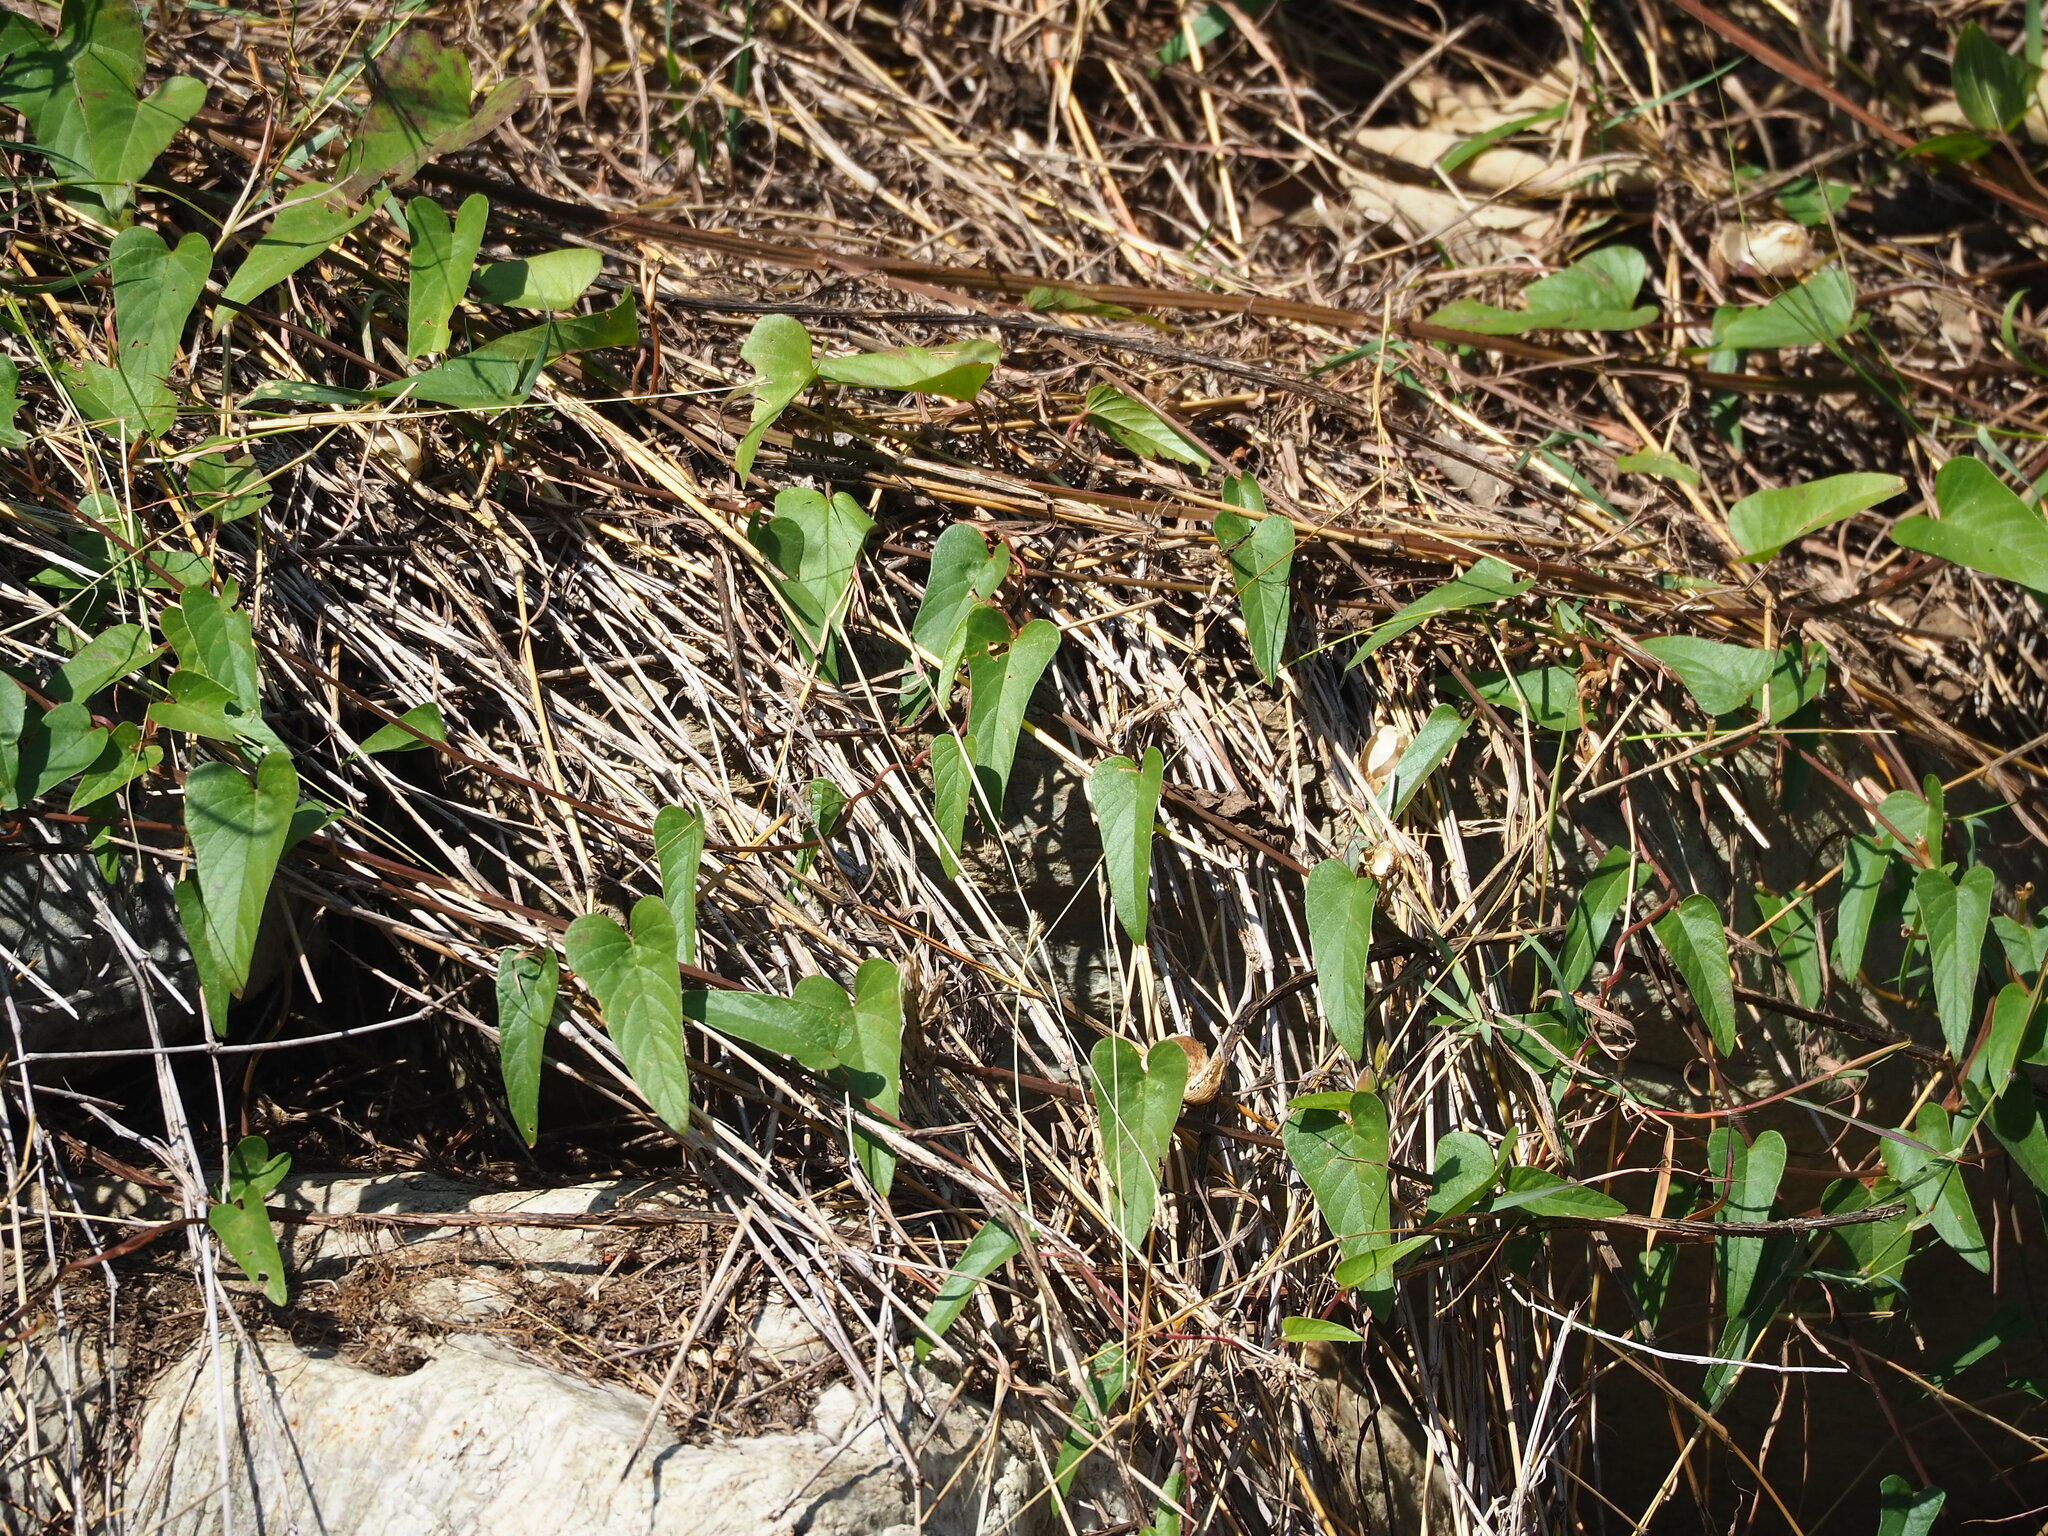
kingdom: Plantae
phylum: Tracheophyta
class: Magnoliopsida
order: Solanales
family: Convolvulaceae
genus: Operculina
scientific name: Operculina turpethum
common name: Transparent wood-rose
